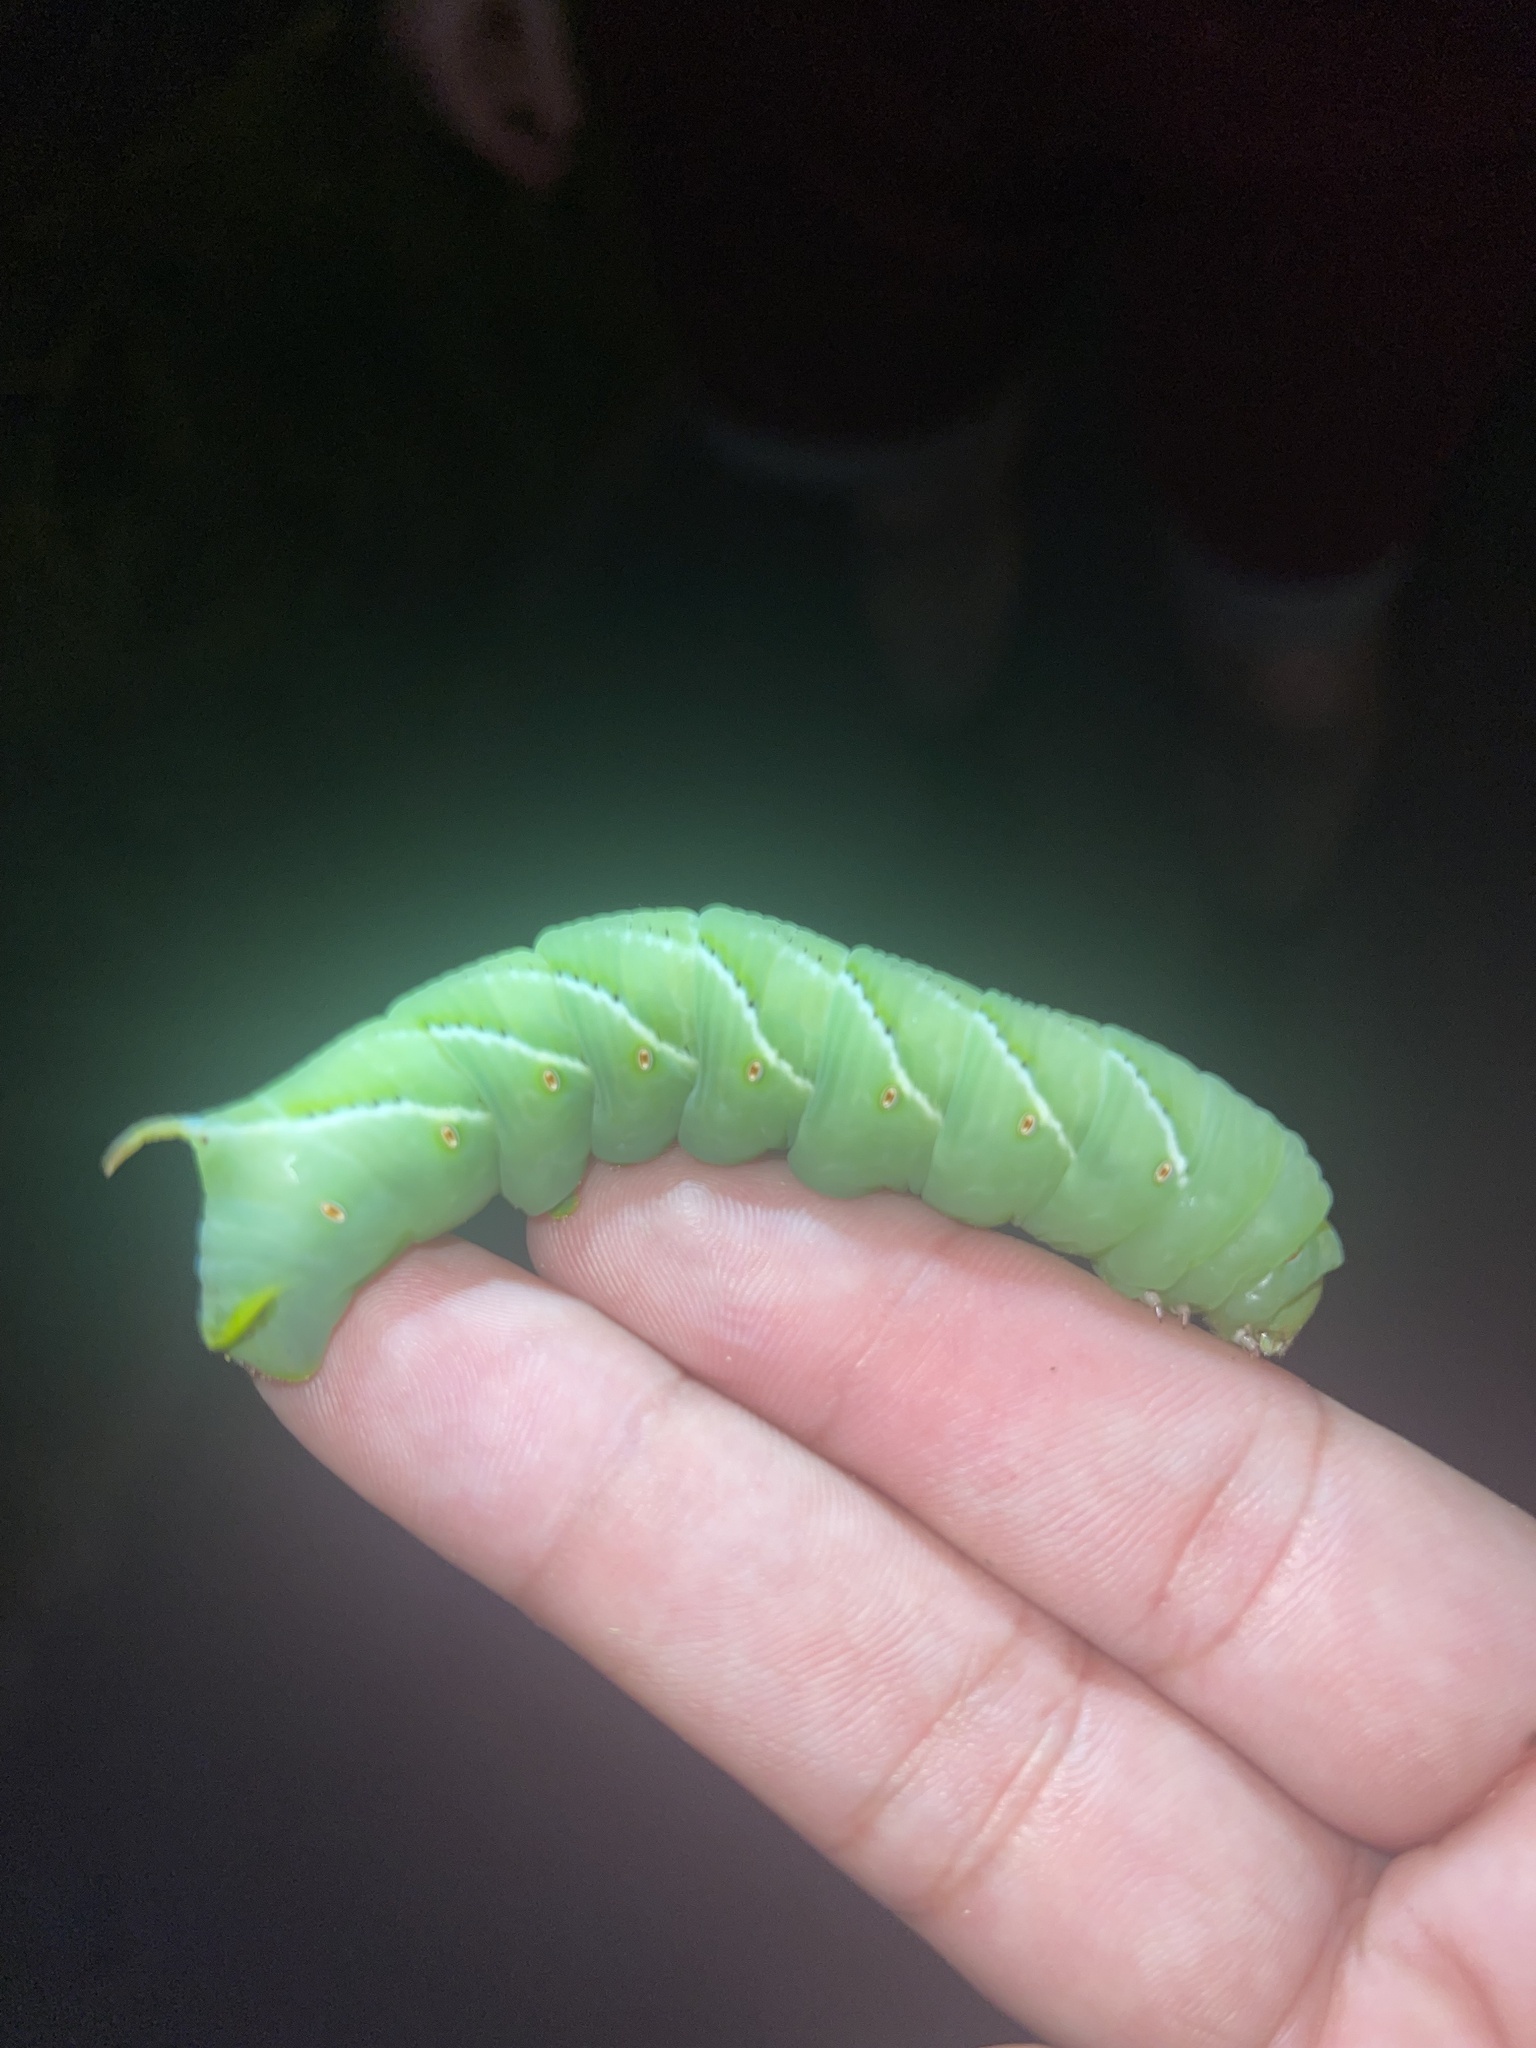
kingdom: Animalia
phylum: Arthropoda
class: Insecta
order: Lepidoptera
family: Sphingidae
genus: Manduca
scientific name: Manduca sexta
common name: Carolina sphinx
